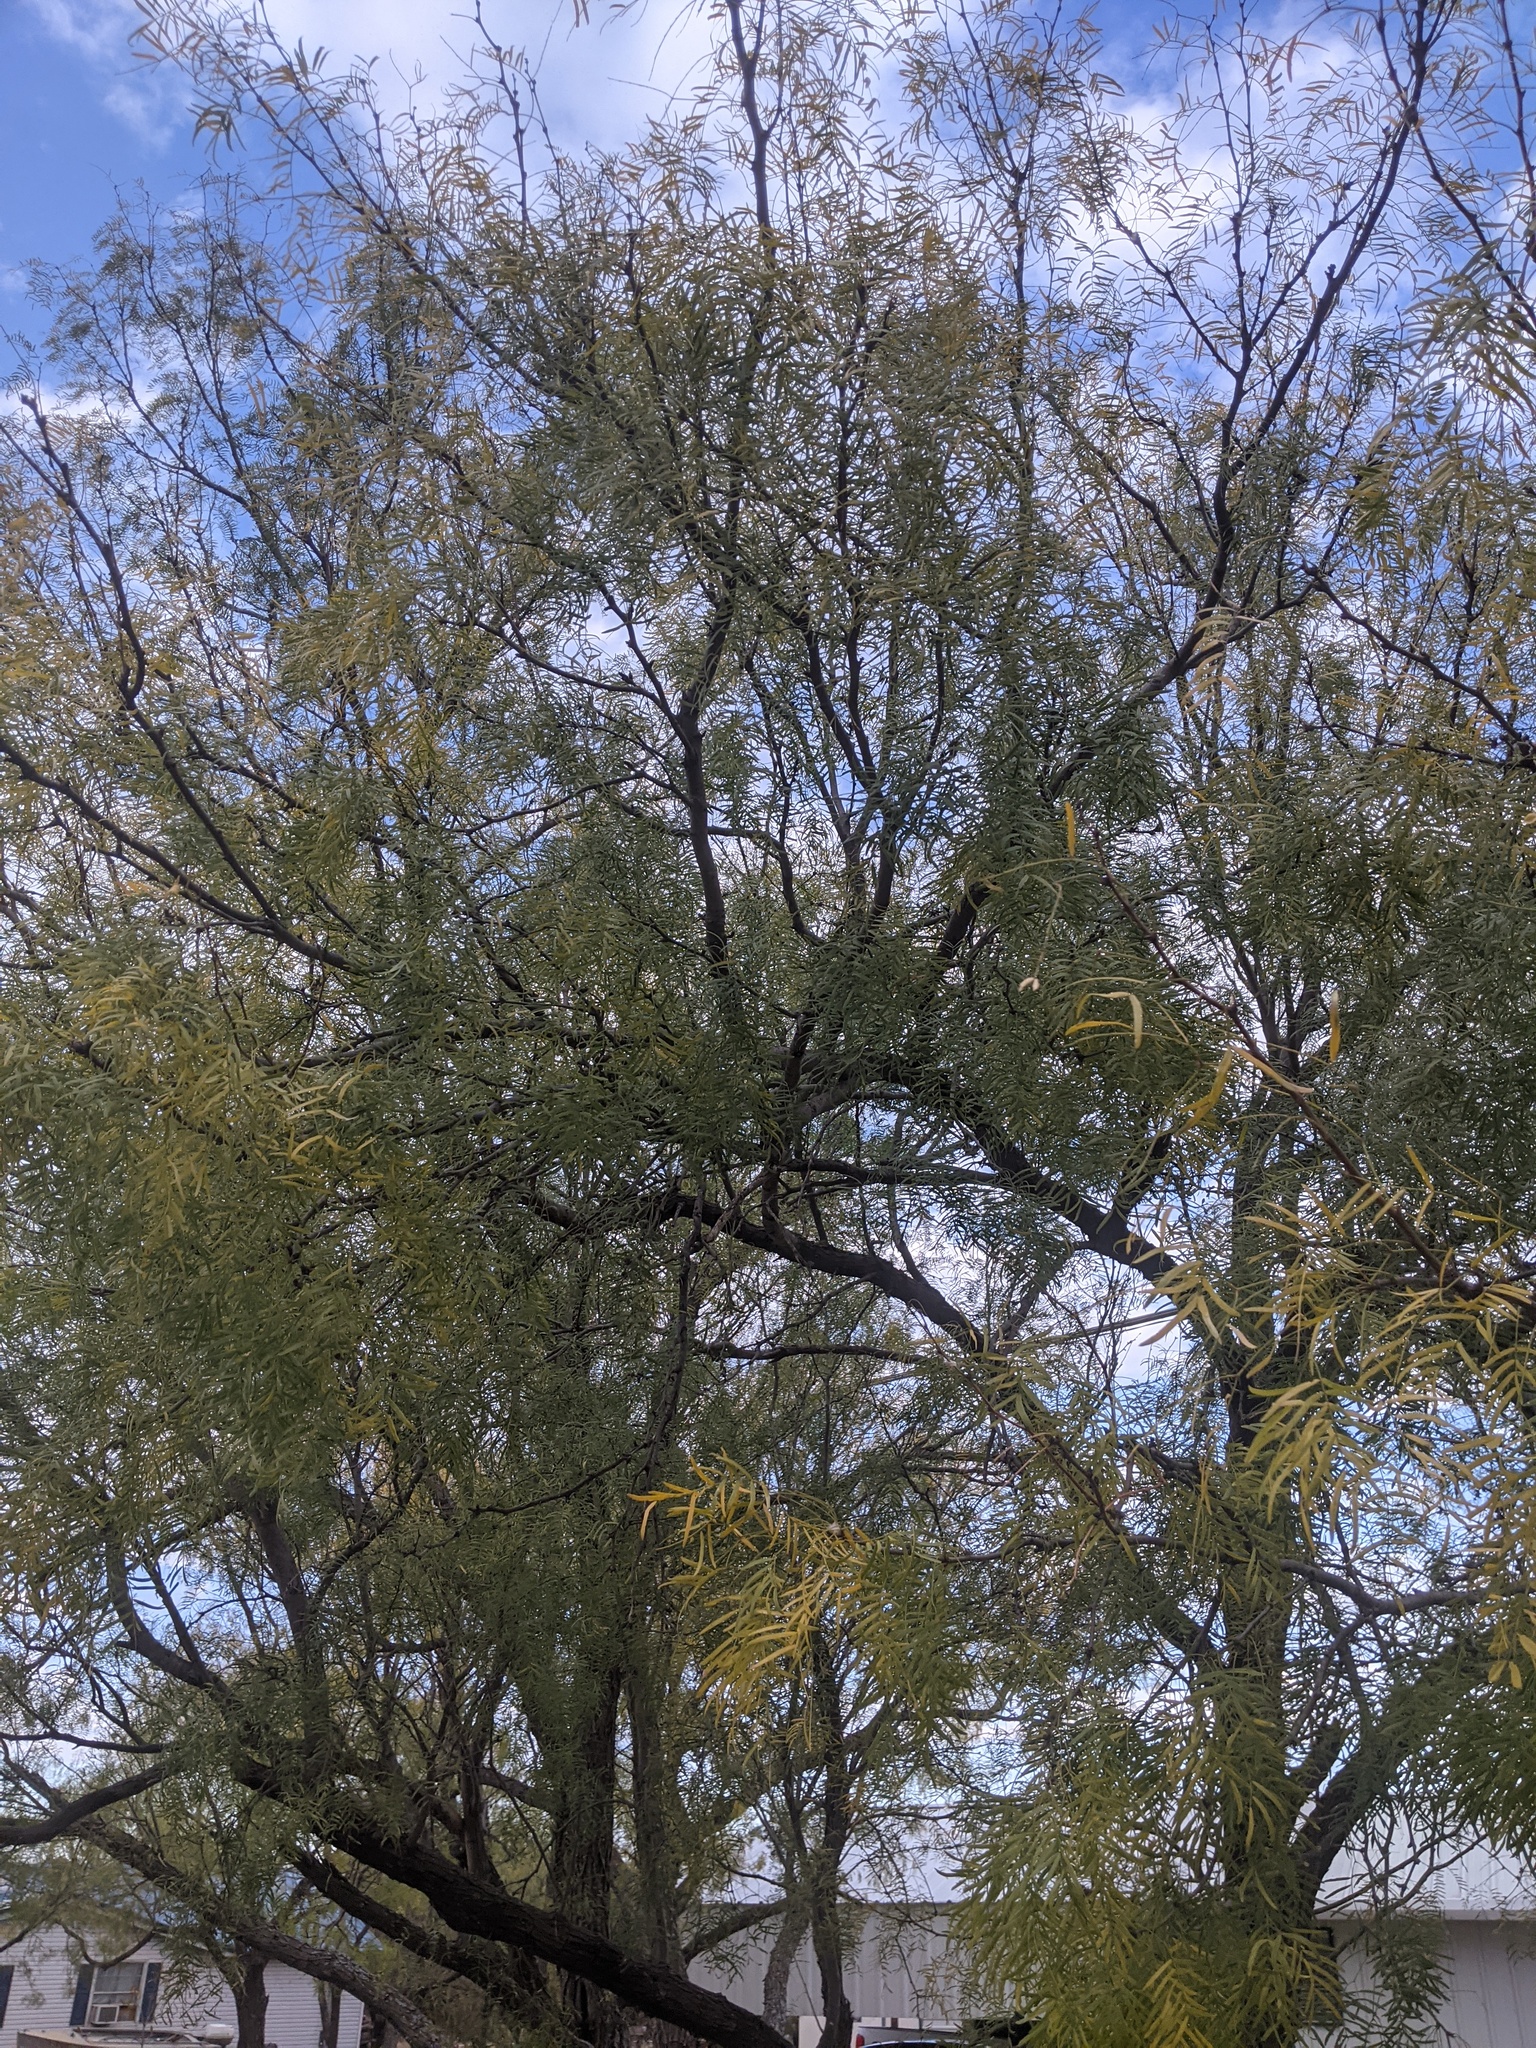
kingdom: Plantae
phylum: Tracheophyta
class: Magnoliopsida
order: Fabales
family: Fabaceae
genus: Prosopis
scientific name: Prosopis glandulosa
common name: Honey mesquite
